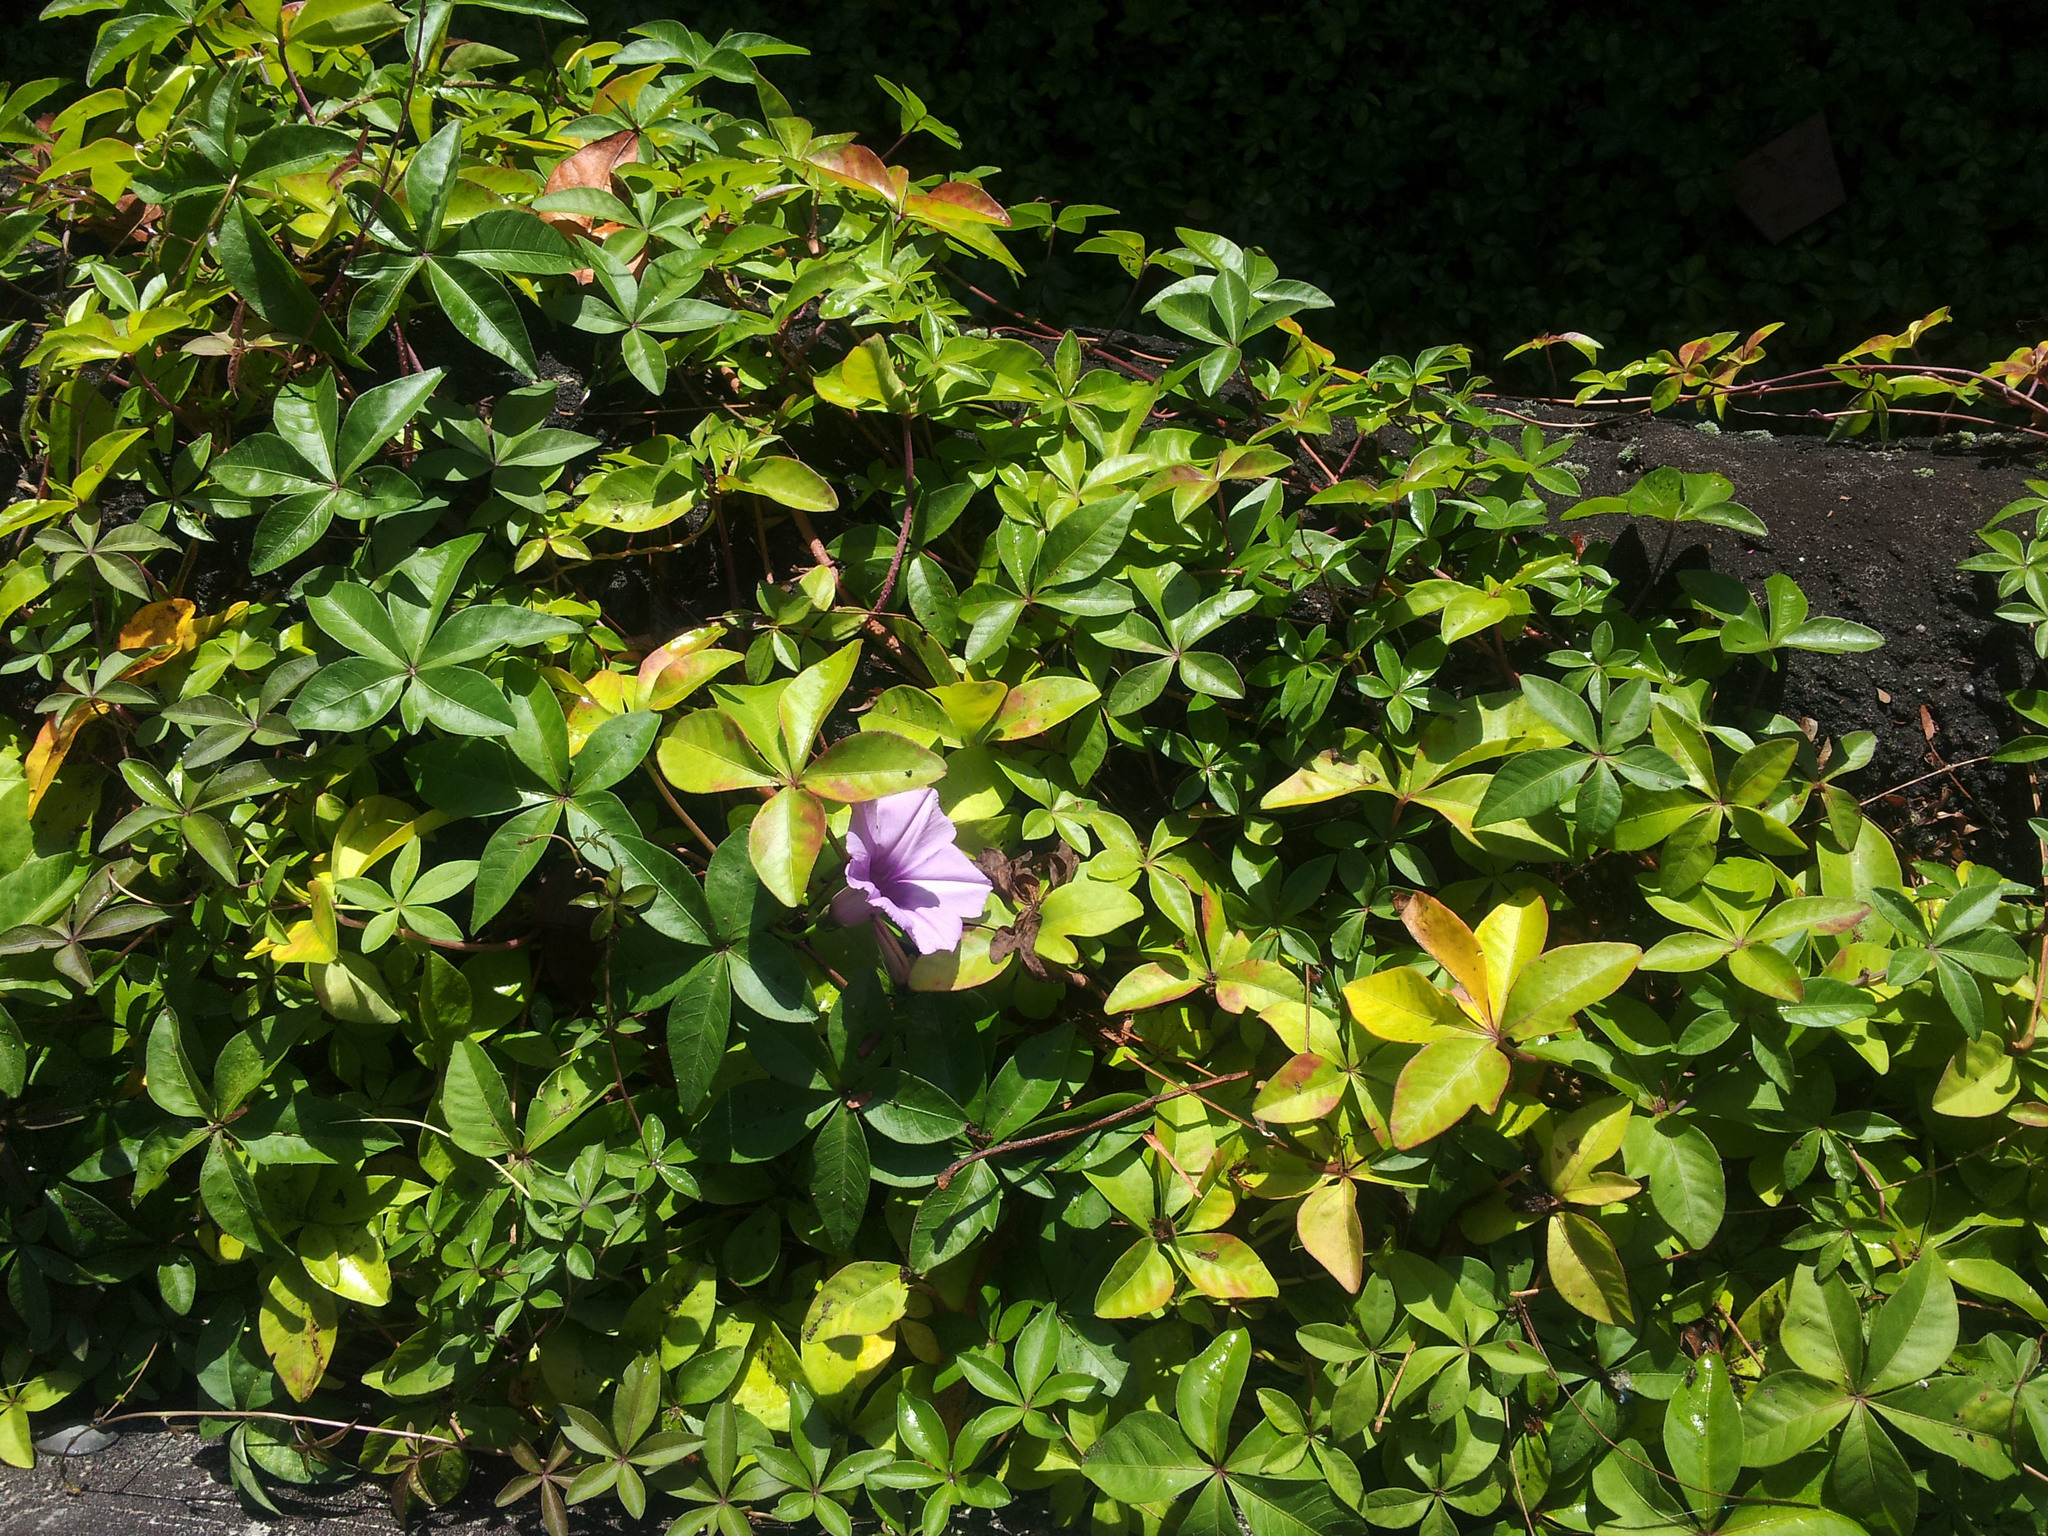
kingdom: Plantae
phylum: Tracheophyta
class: Magnoliopsida
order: Solanales
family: Convolvulaceae
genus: Ipomoea
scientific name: Ipomoea cairica
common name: Mile a minute vine
